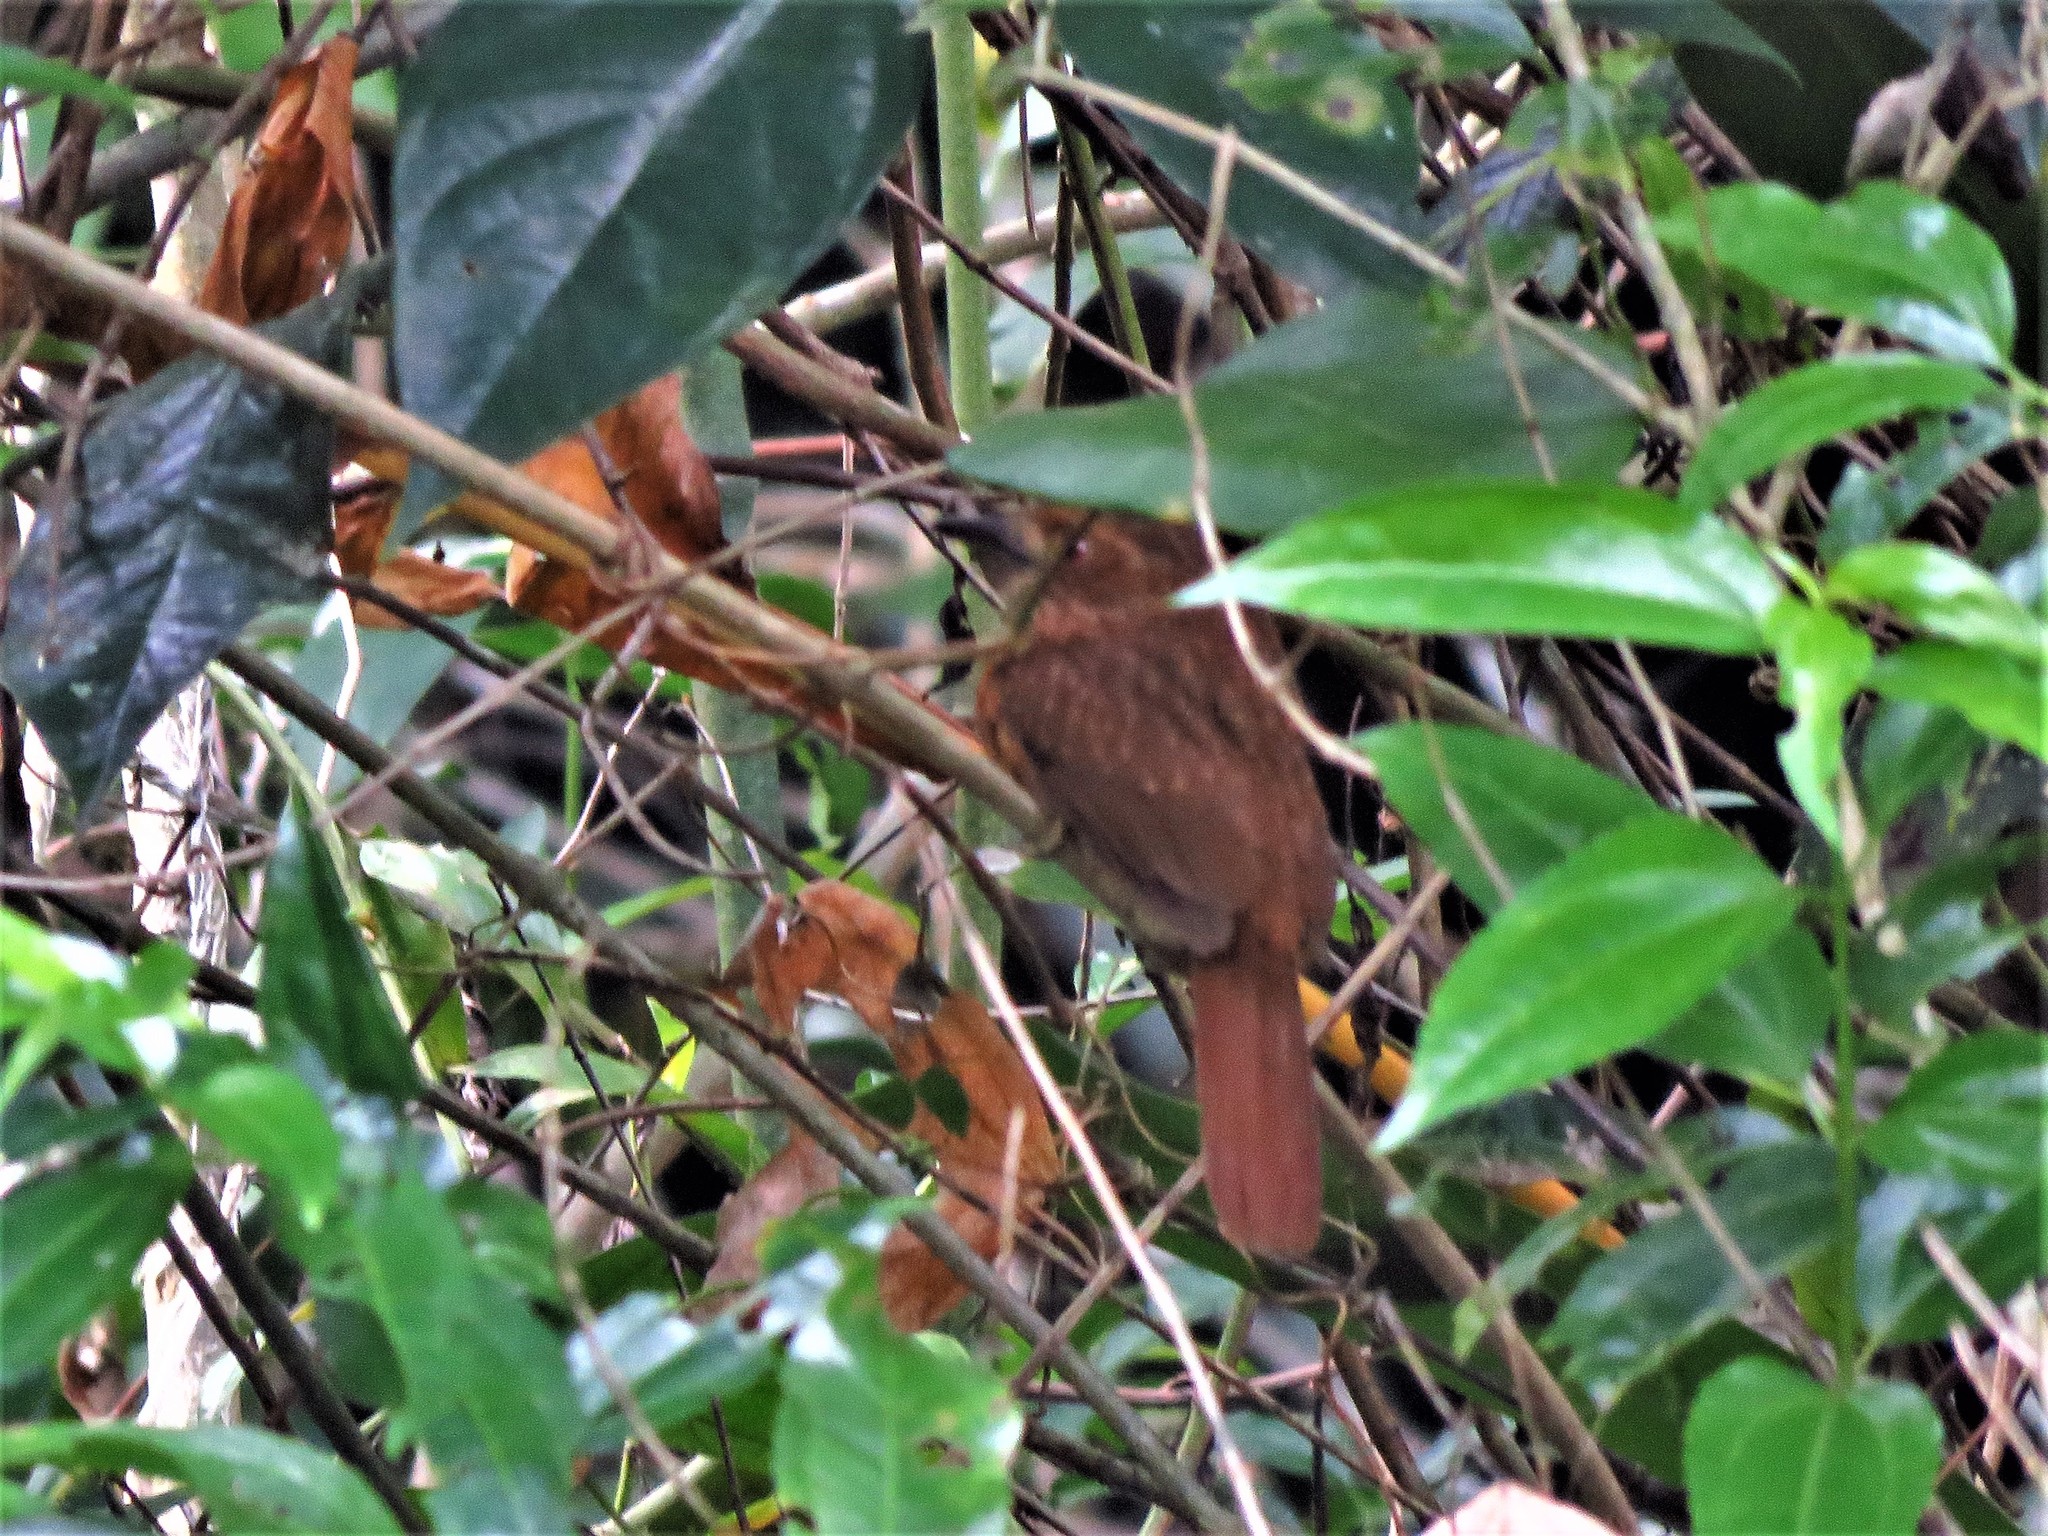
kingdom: Animalia
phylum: Chordata
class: Aves
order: Piciformes
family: Bucconidae
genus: Malacoptila
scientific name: Malacoptila panamensis
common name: White-whiskered puffbird
